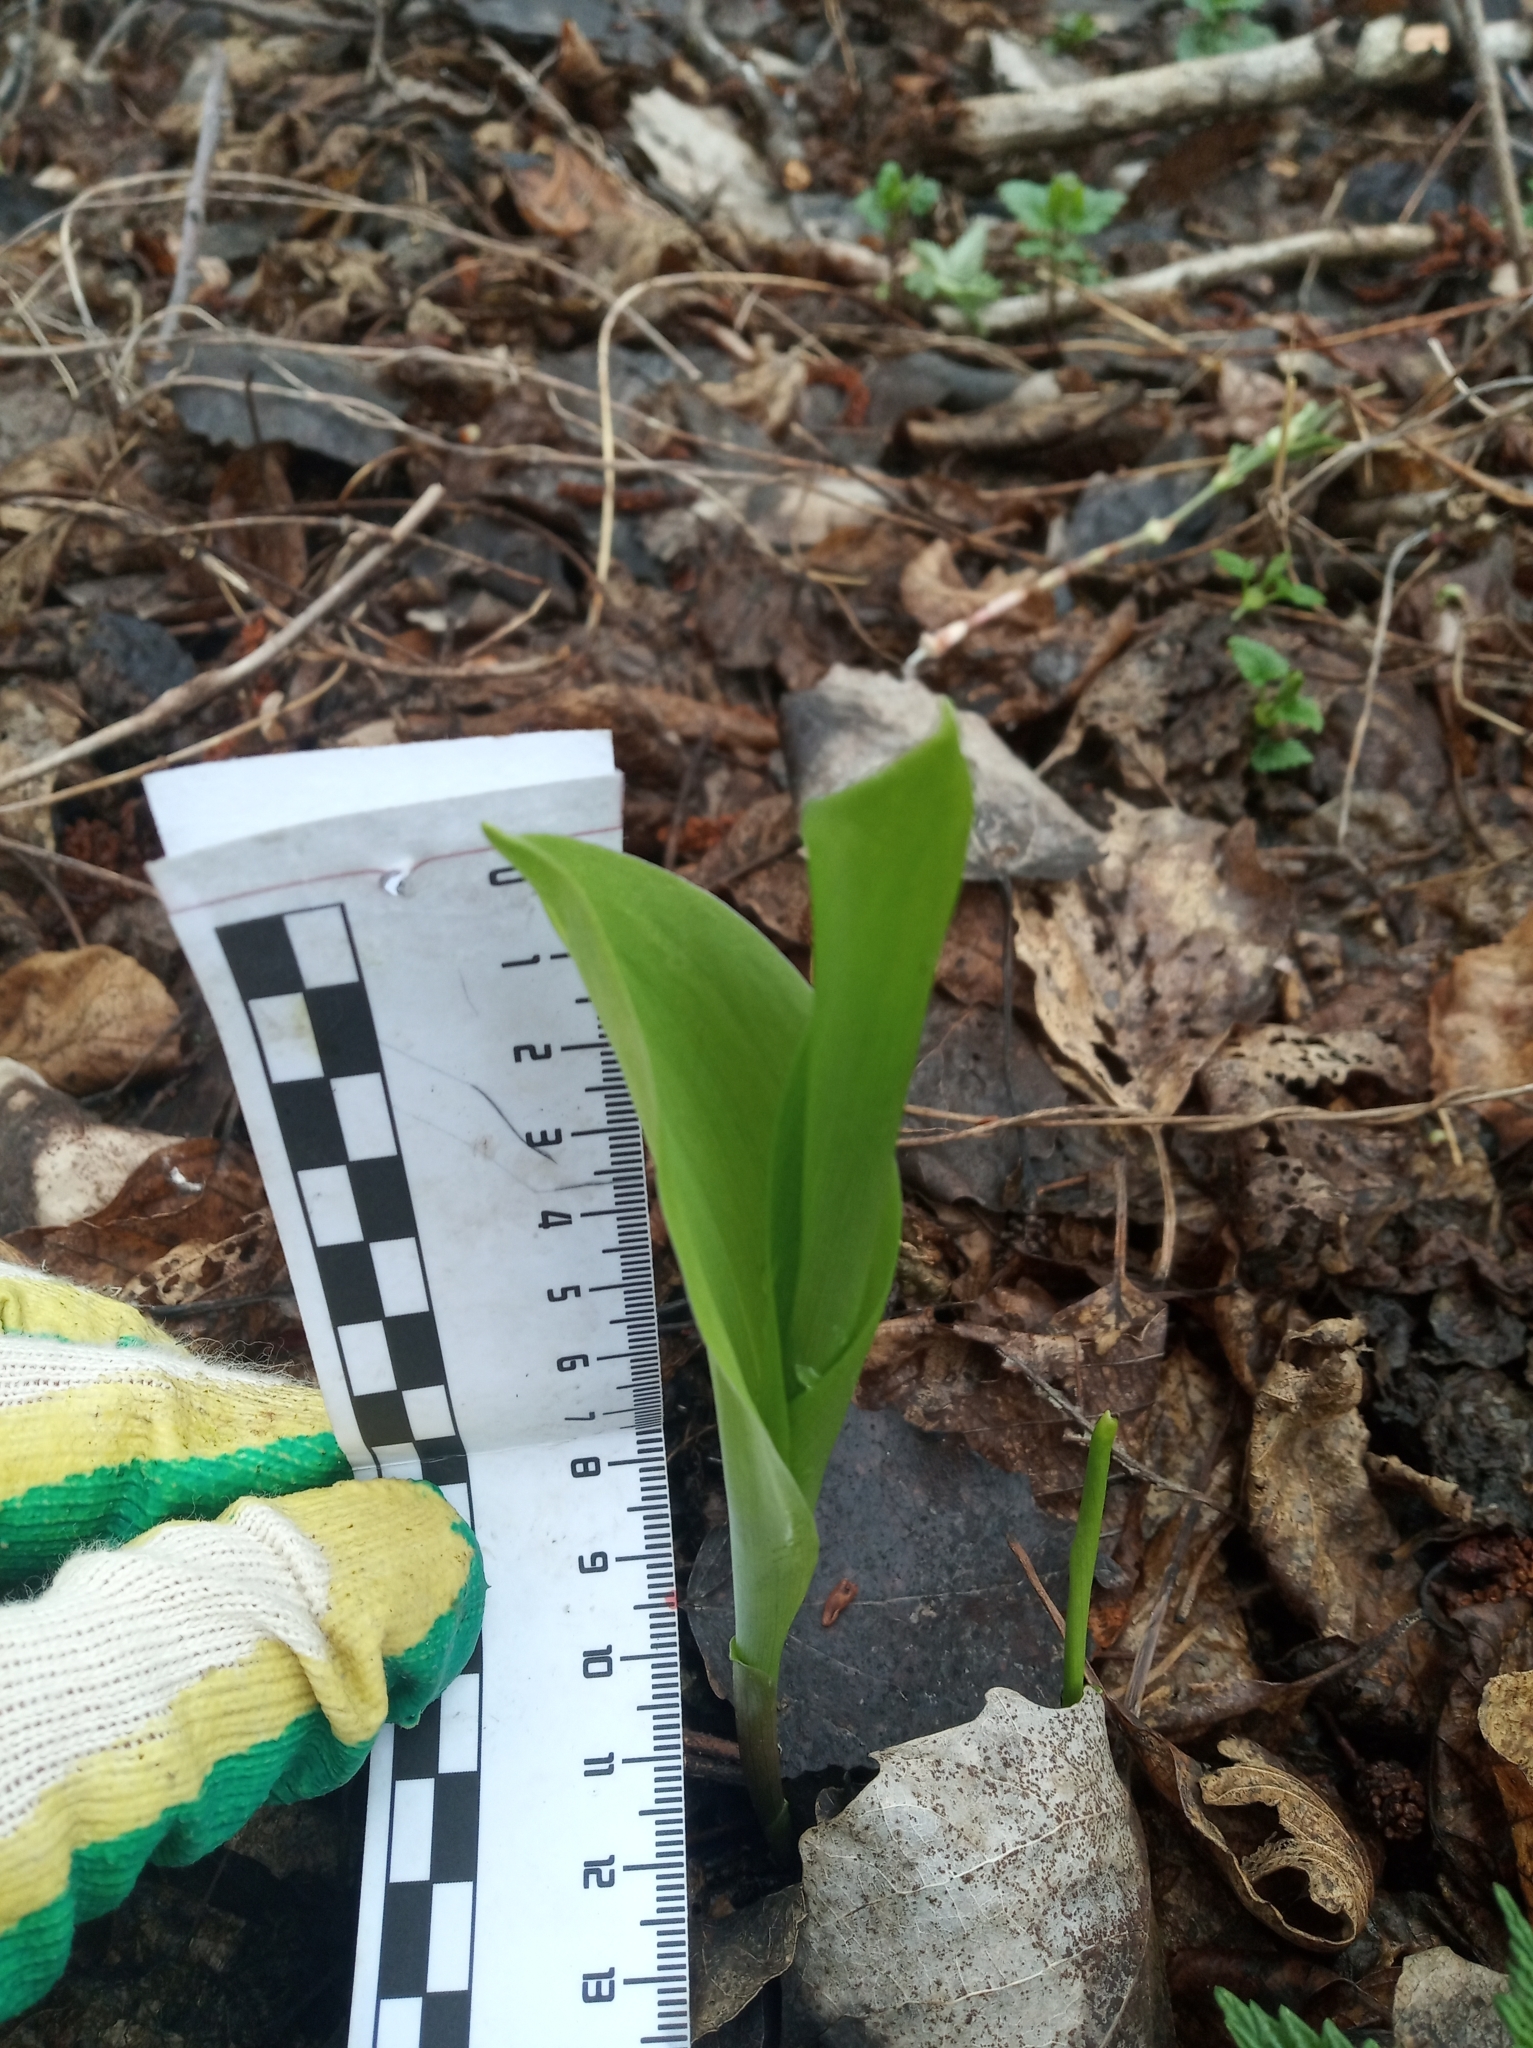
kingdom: Plantae
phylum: Tracheophyta
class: Liliopsida
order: Asparagales
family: Asparagaceae
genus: Convallaria
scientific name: Convallaria majalis
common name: Lily-of-the-valley
